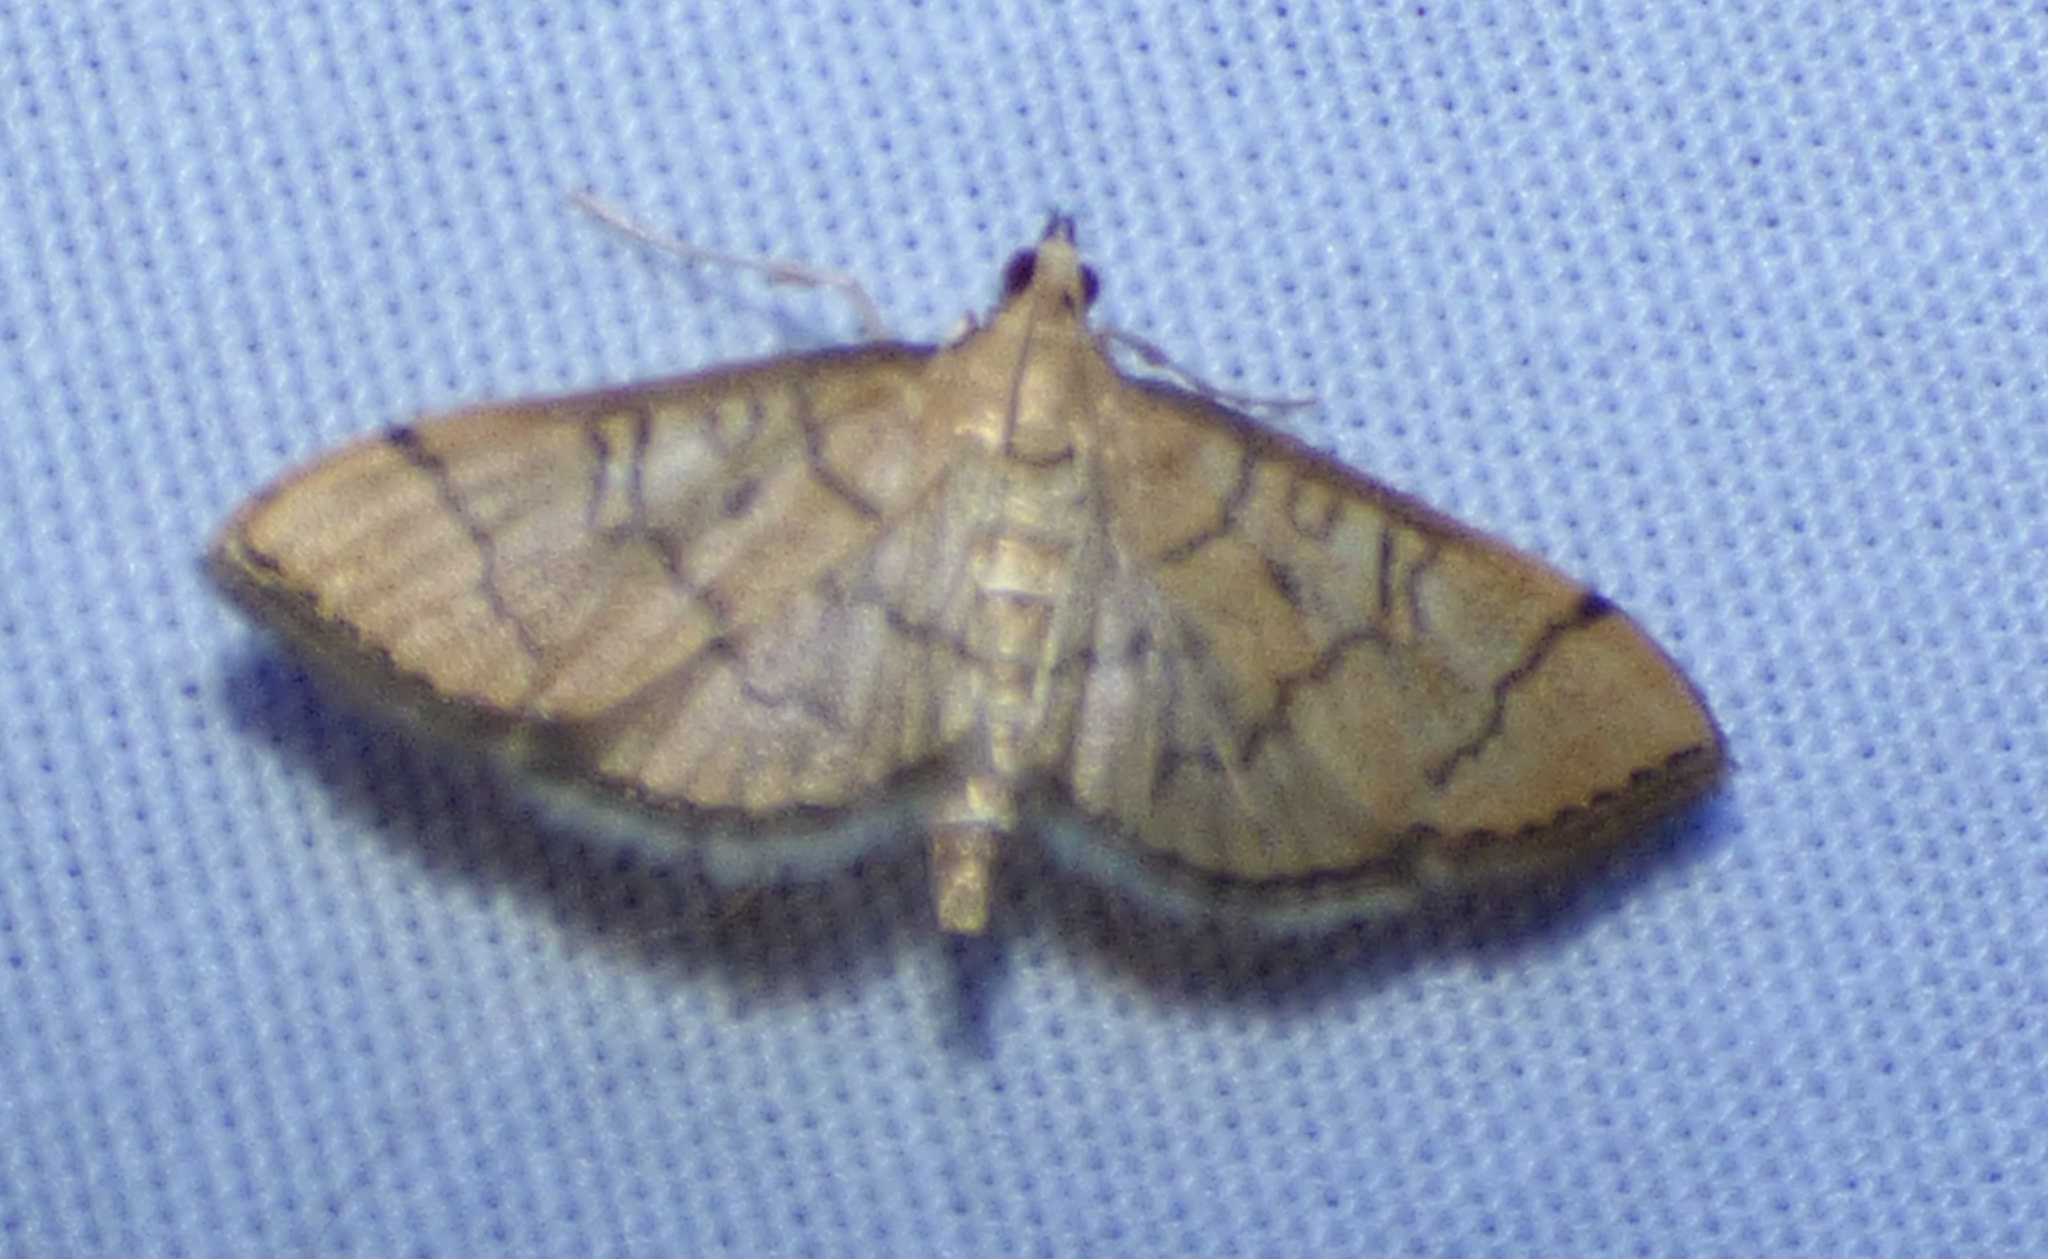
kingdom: Animalia
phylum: Arthropoda
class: Insecta
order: Lepidoptera
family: Crambidae
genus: Lamprosema
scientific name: Lamprosema Blepharomastix ranalis
